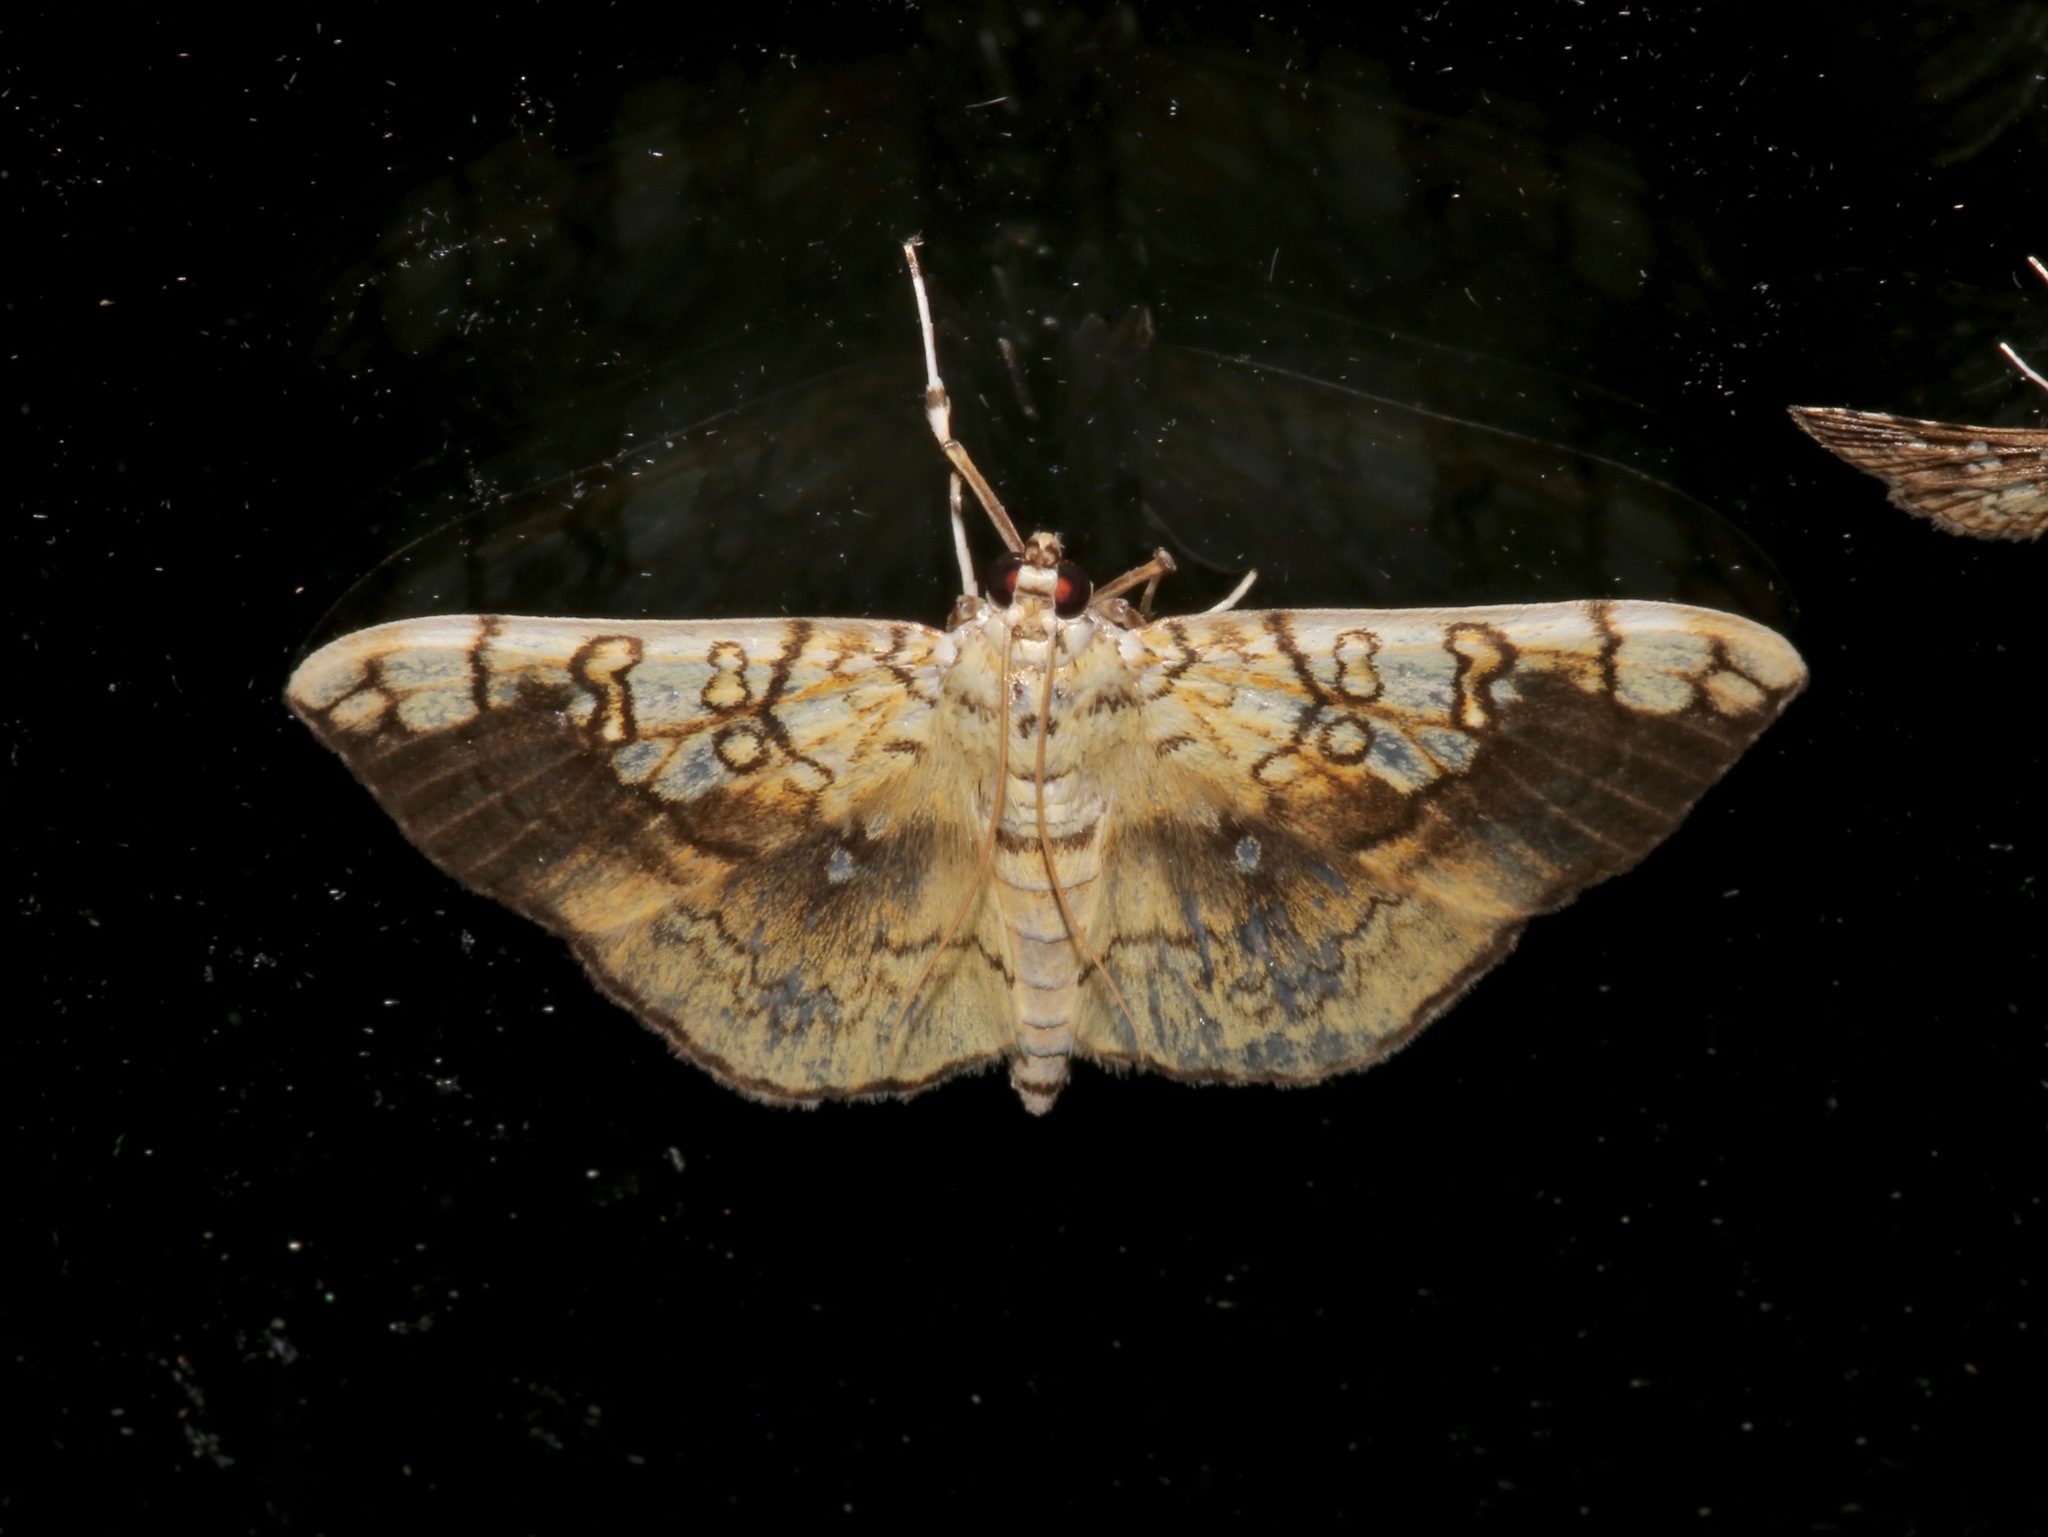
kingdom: Animalia
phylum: Arthropoda
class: Insecta
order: Lepidoptera
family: Crambidae
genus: Pantographa
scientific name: Pantographa limata
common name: Basswood leafroller moth
